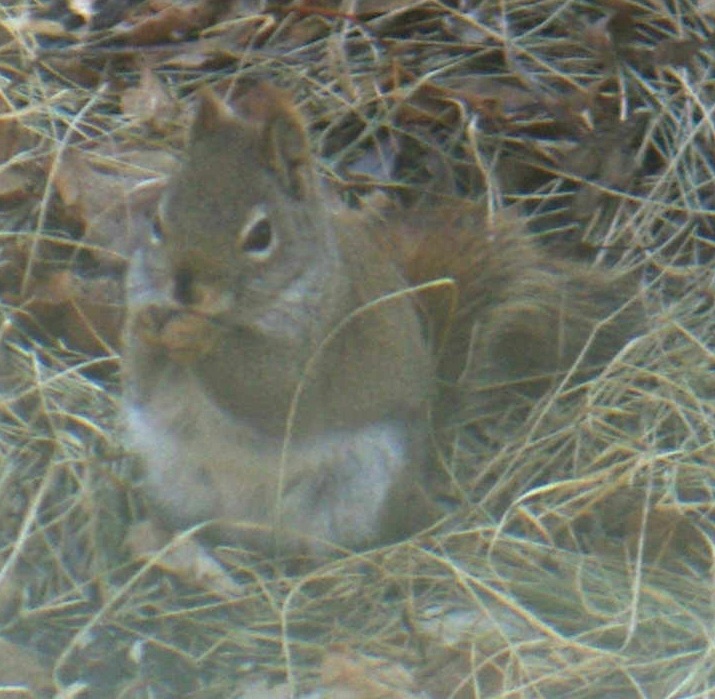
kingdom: Animalia
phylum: Chordata
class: Mammalia
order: Rodentia
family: Sciuridae
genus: Tamiasciurus
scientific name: Tamiasciurus hudsonicus
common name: Red squirrel
